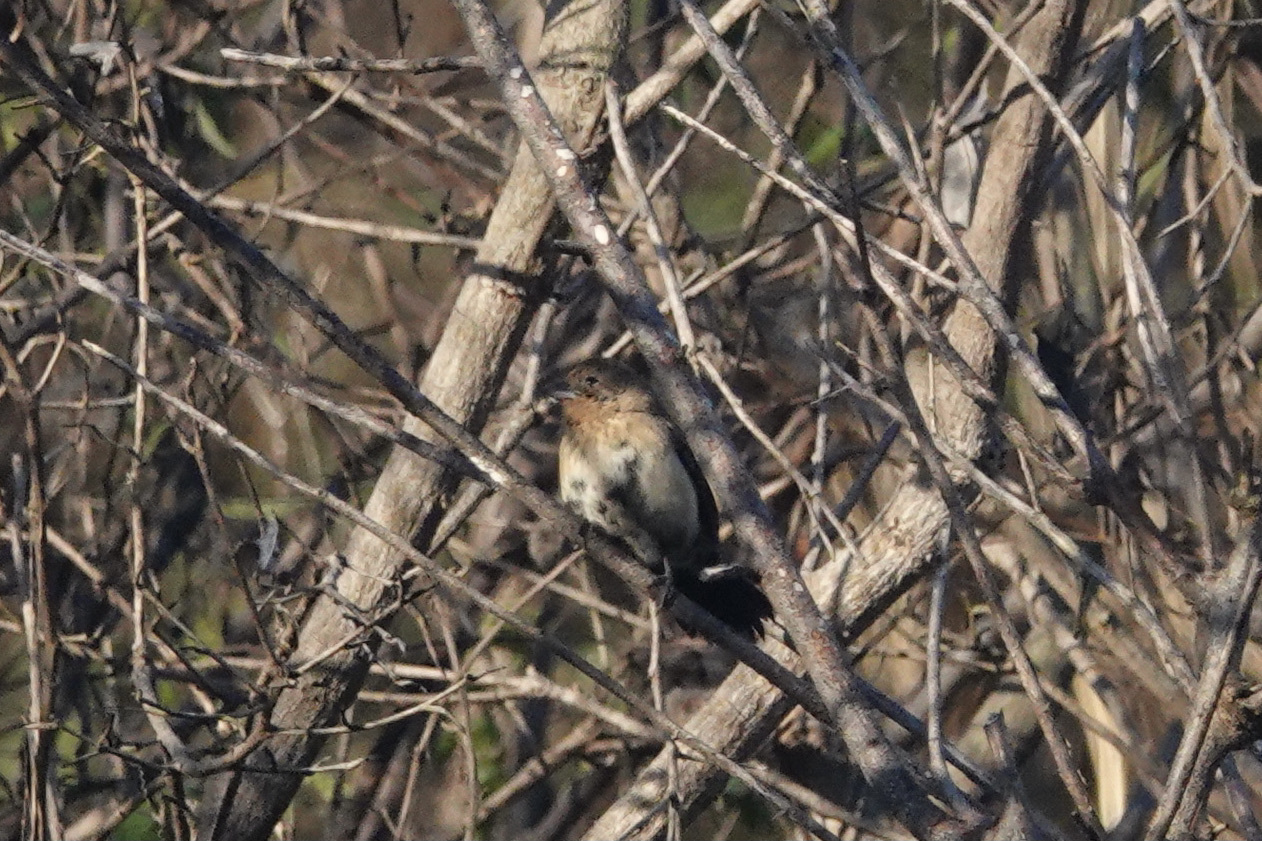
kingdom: Animalia
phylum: Chordata
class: Aves
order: Passeriformes
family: Thraupidae
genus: Volatinia
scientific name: Volatinia jacarina
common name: Blue-black grassquit
